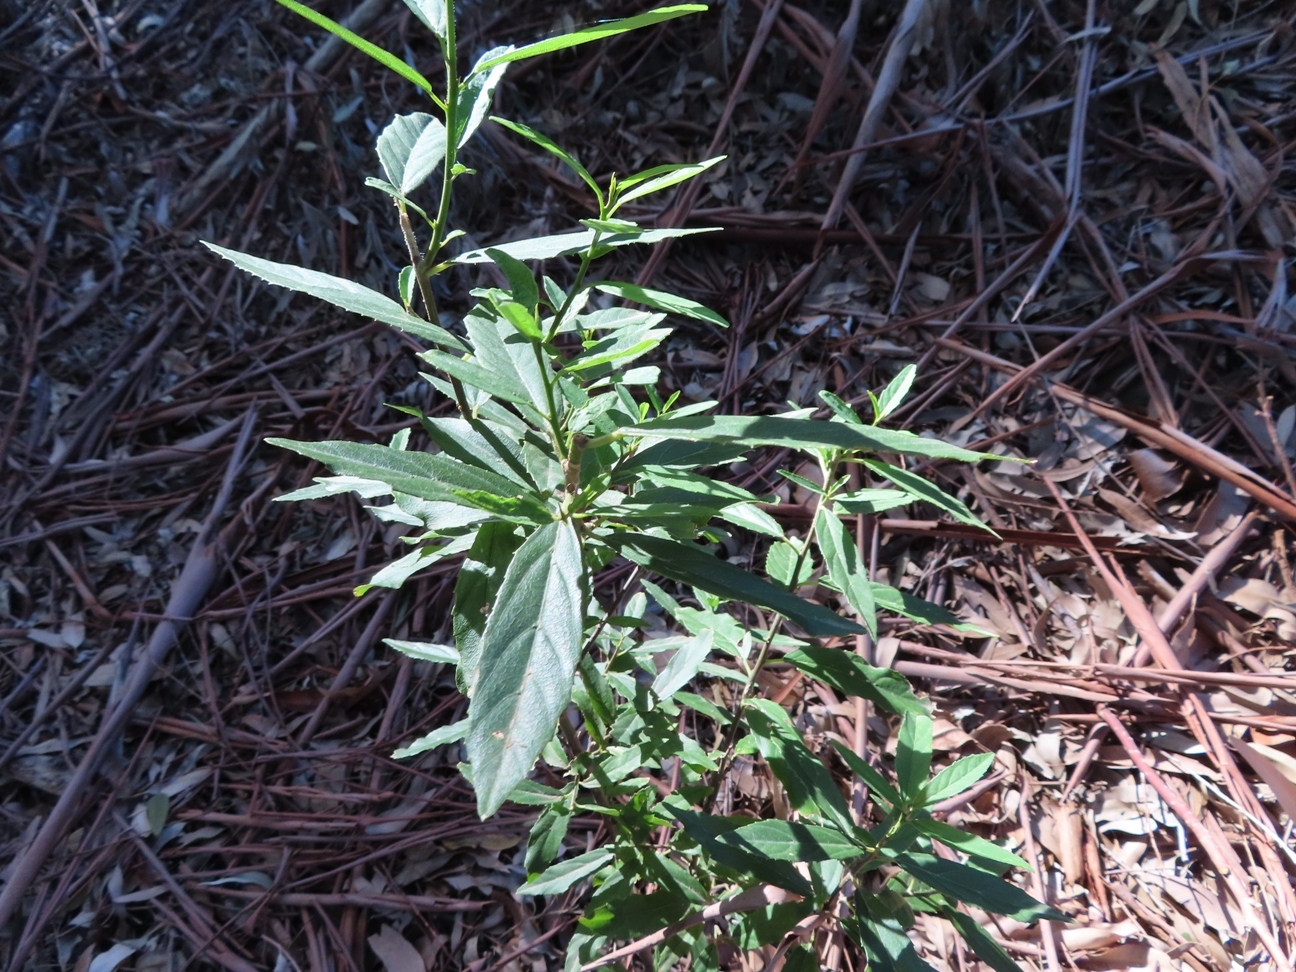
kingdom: Plantae
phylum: Tracheophyta
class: Magnoliopsida
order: Malpighiales
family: Achariaceae
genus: Kiggelaria
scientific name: Kiggelaria africana
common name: Wild peach
